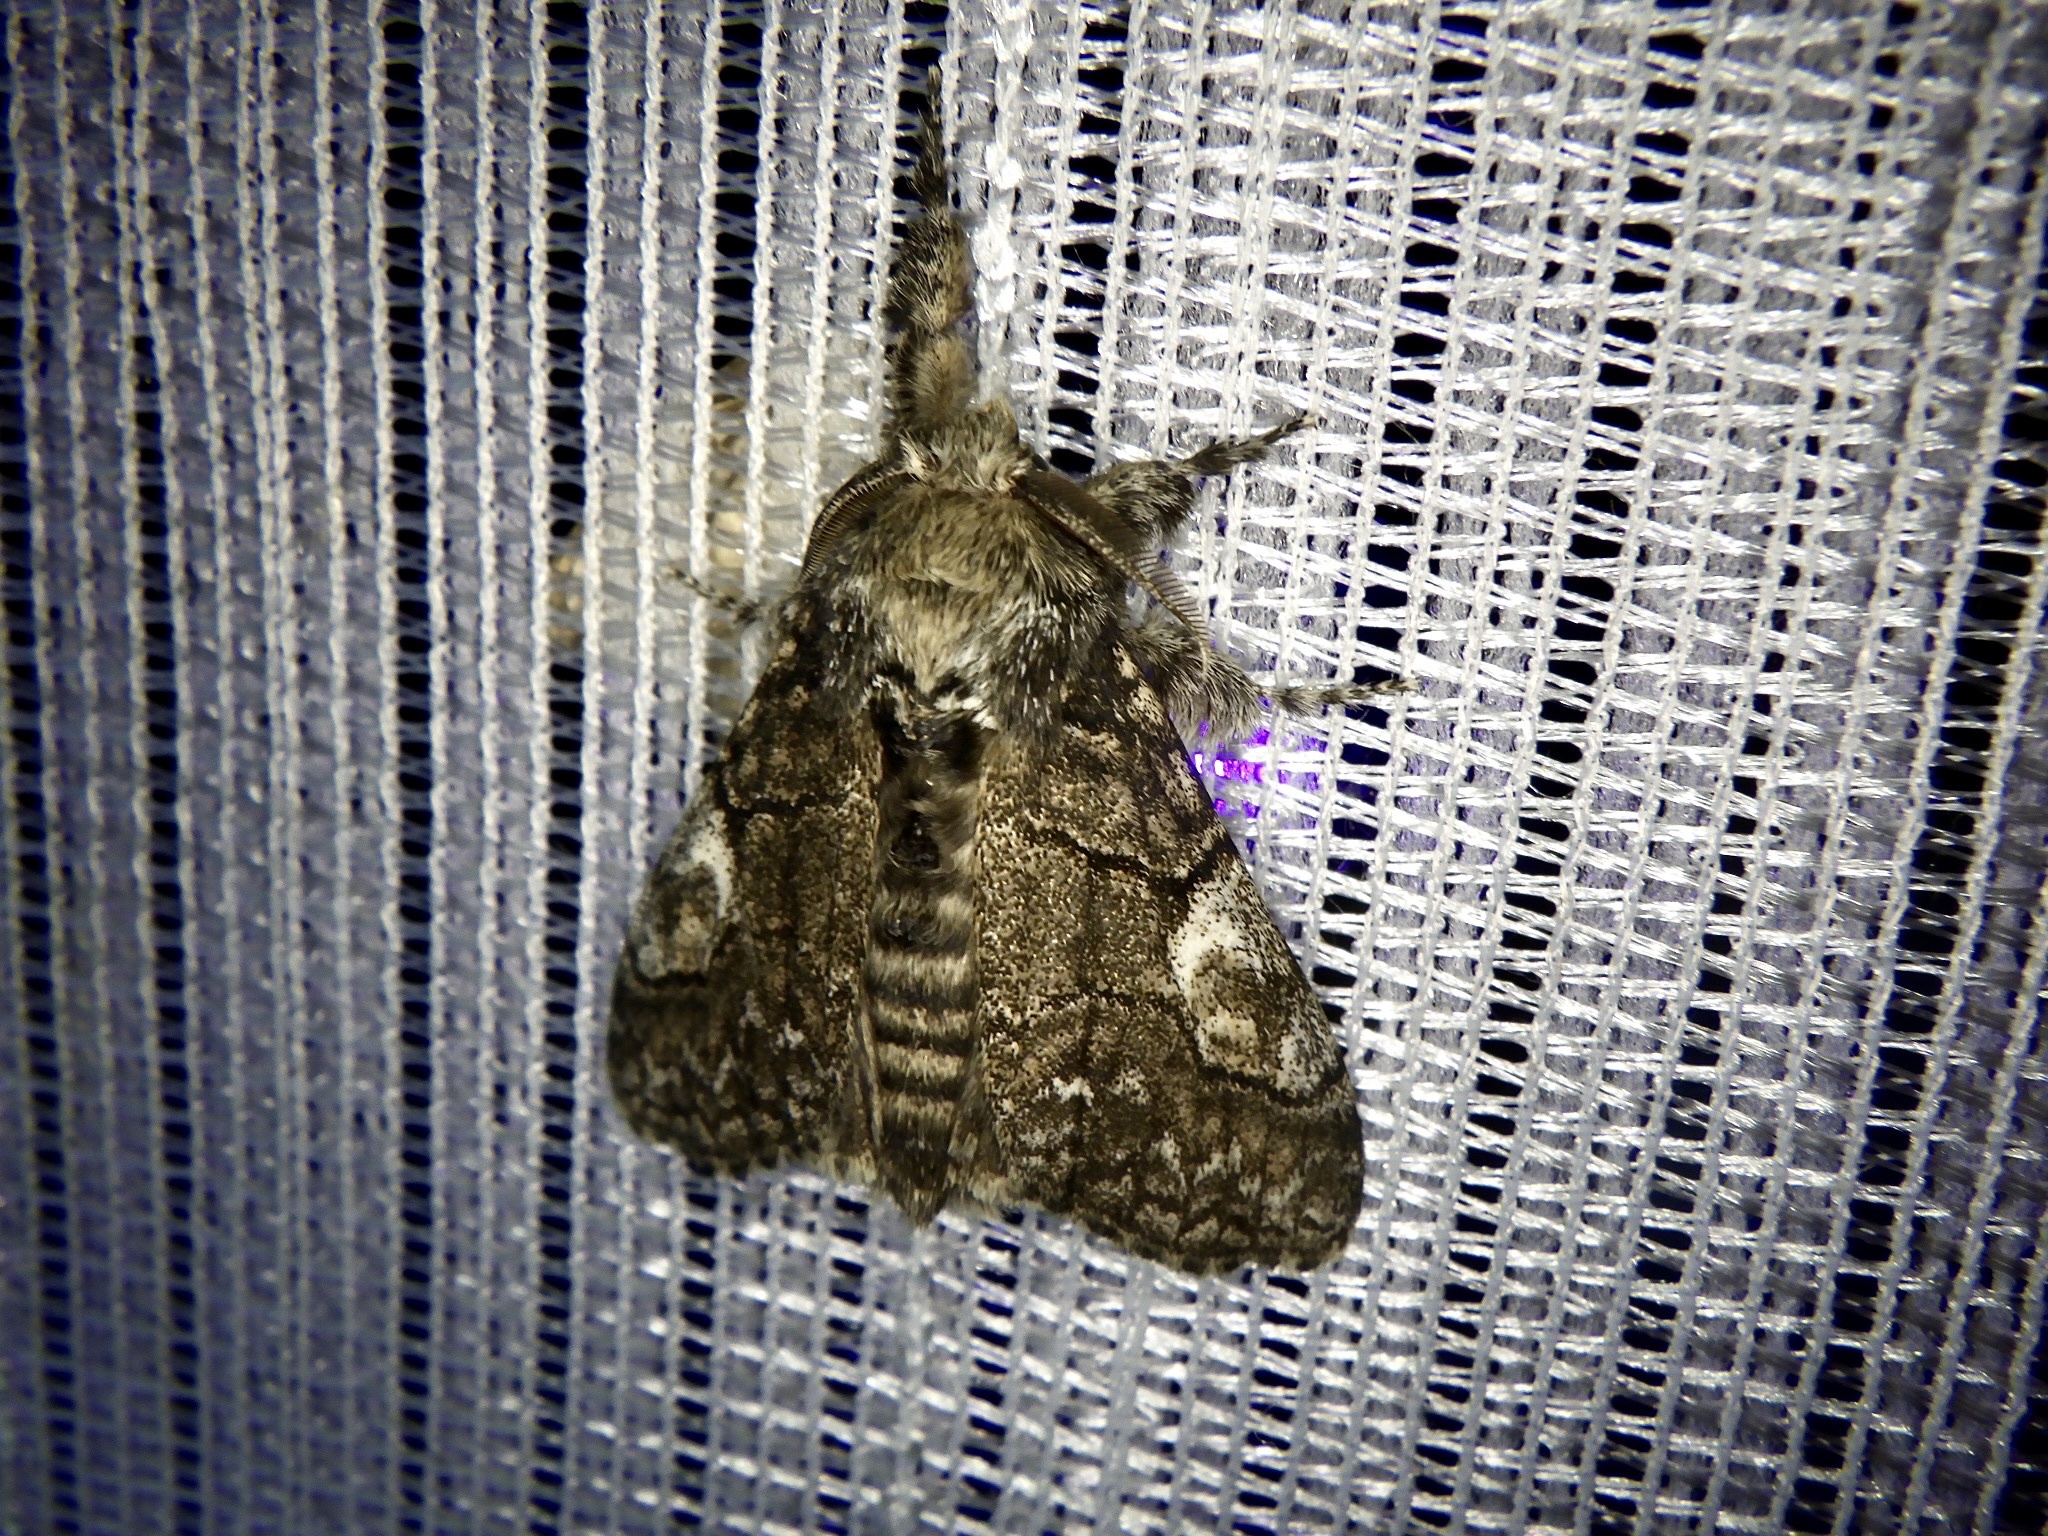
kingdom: Animalia
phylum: Arthropoda
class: Insecta
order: Lepidoptera
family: Erebidae
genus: Calliteara
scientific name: Calliteara conjuncta
